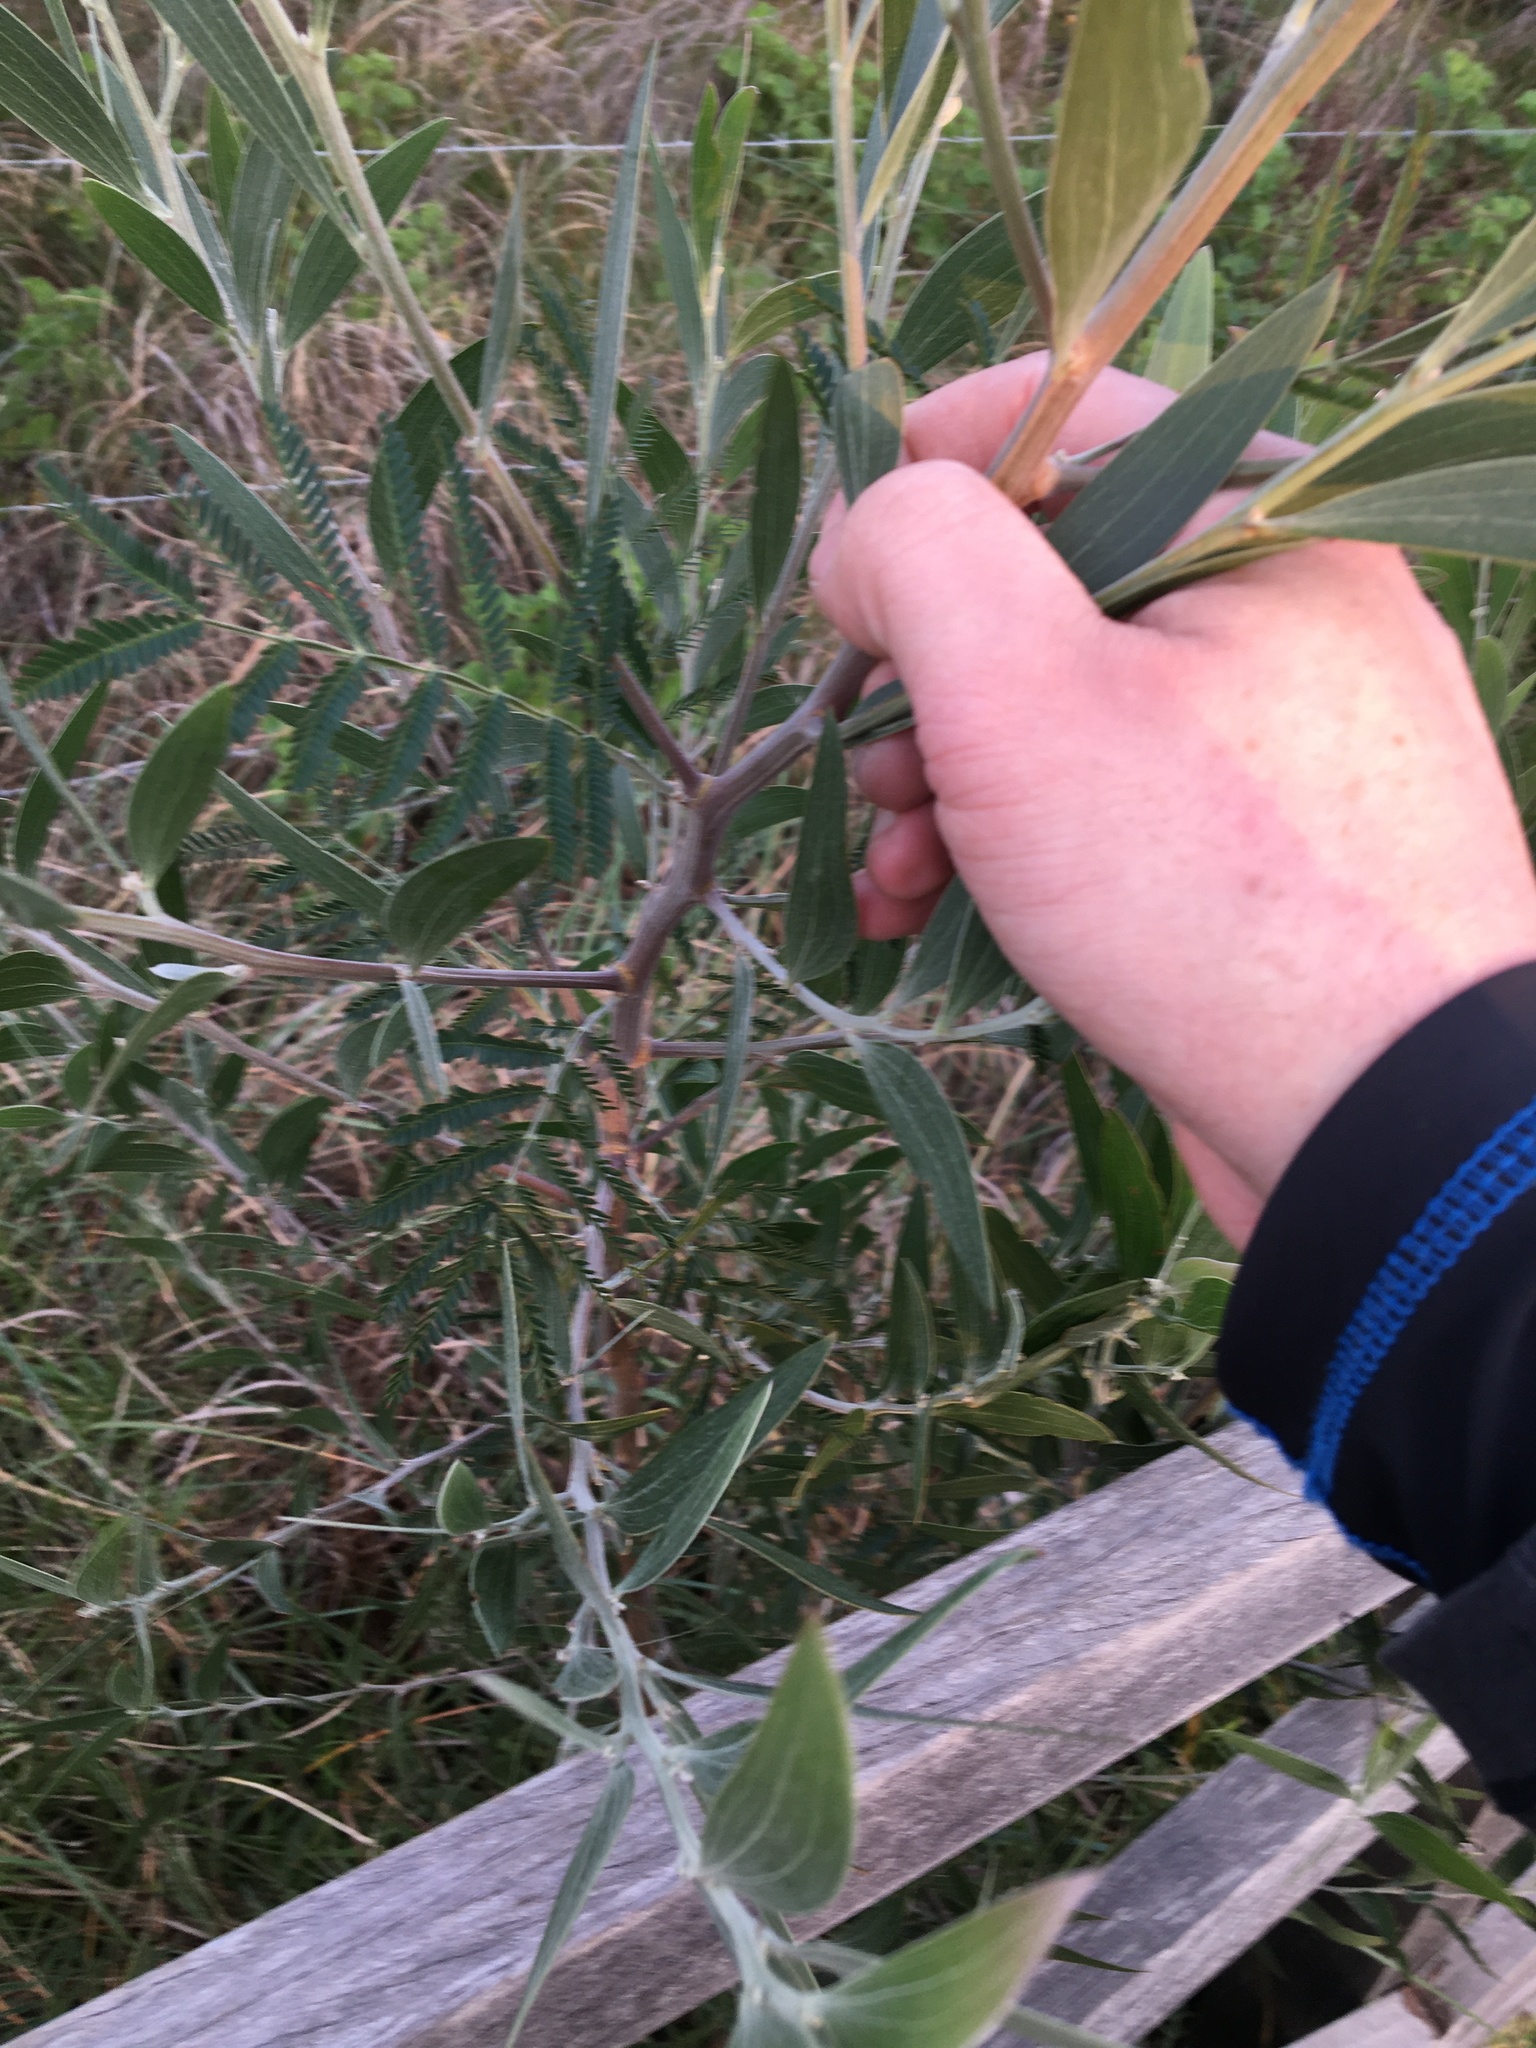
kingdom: Plantae
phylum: Tracheophyta
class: Magnoliopsida
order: Fabales
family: Fabaceae
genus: Acacia
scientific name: Acacia melanoxylon
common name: Blackwood
